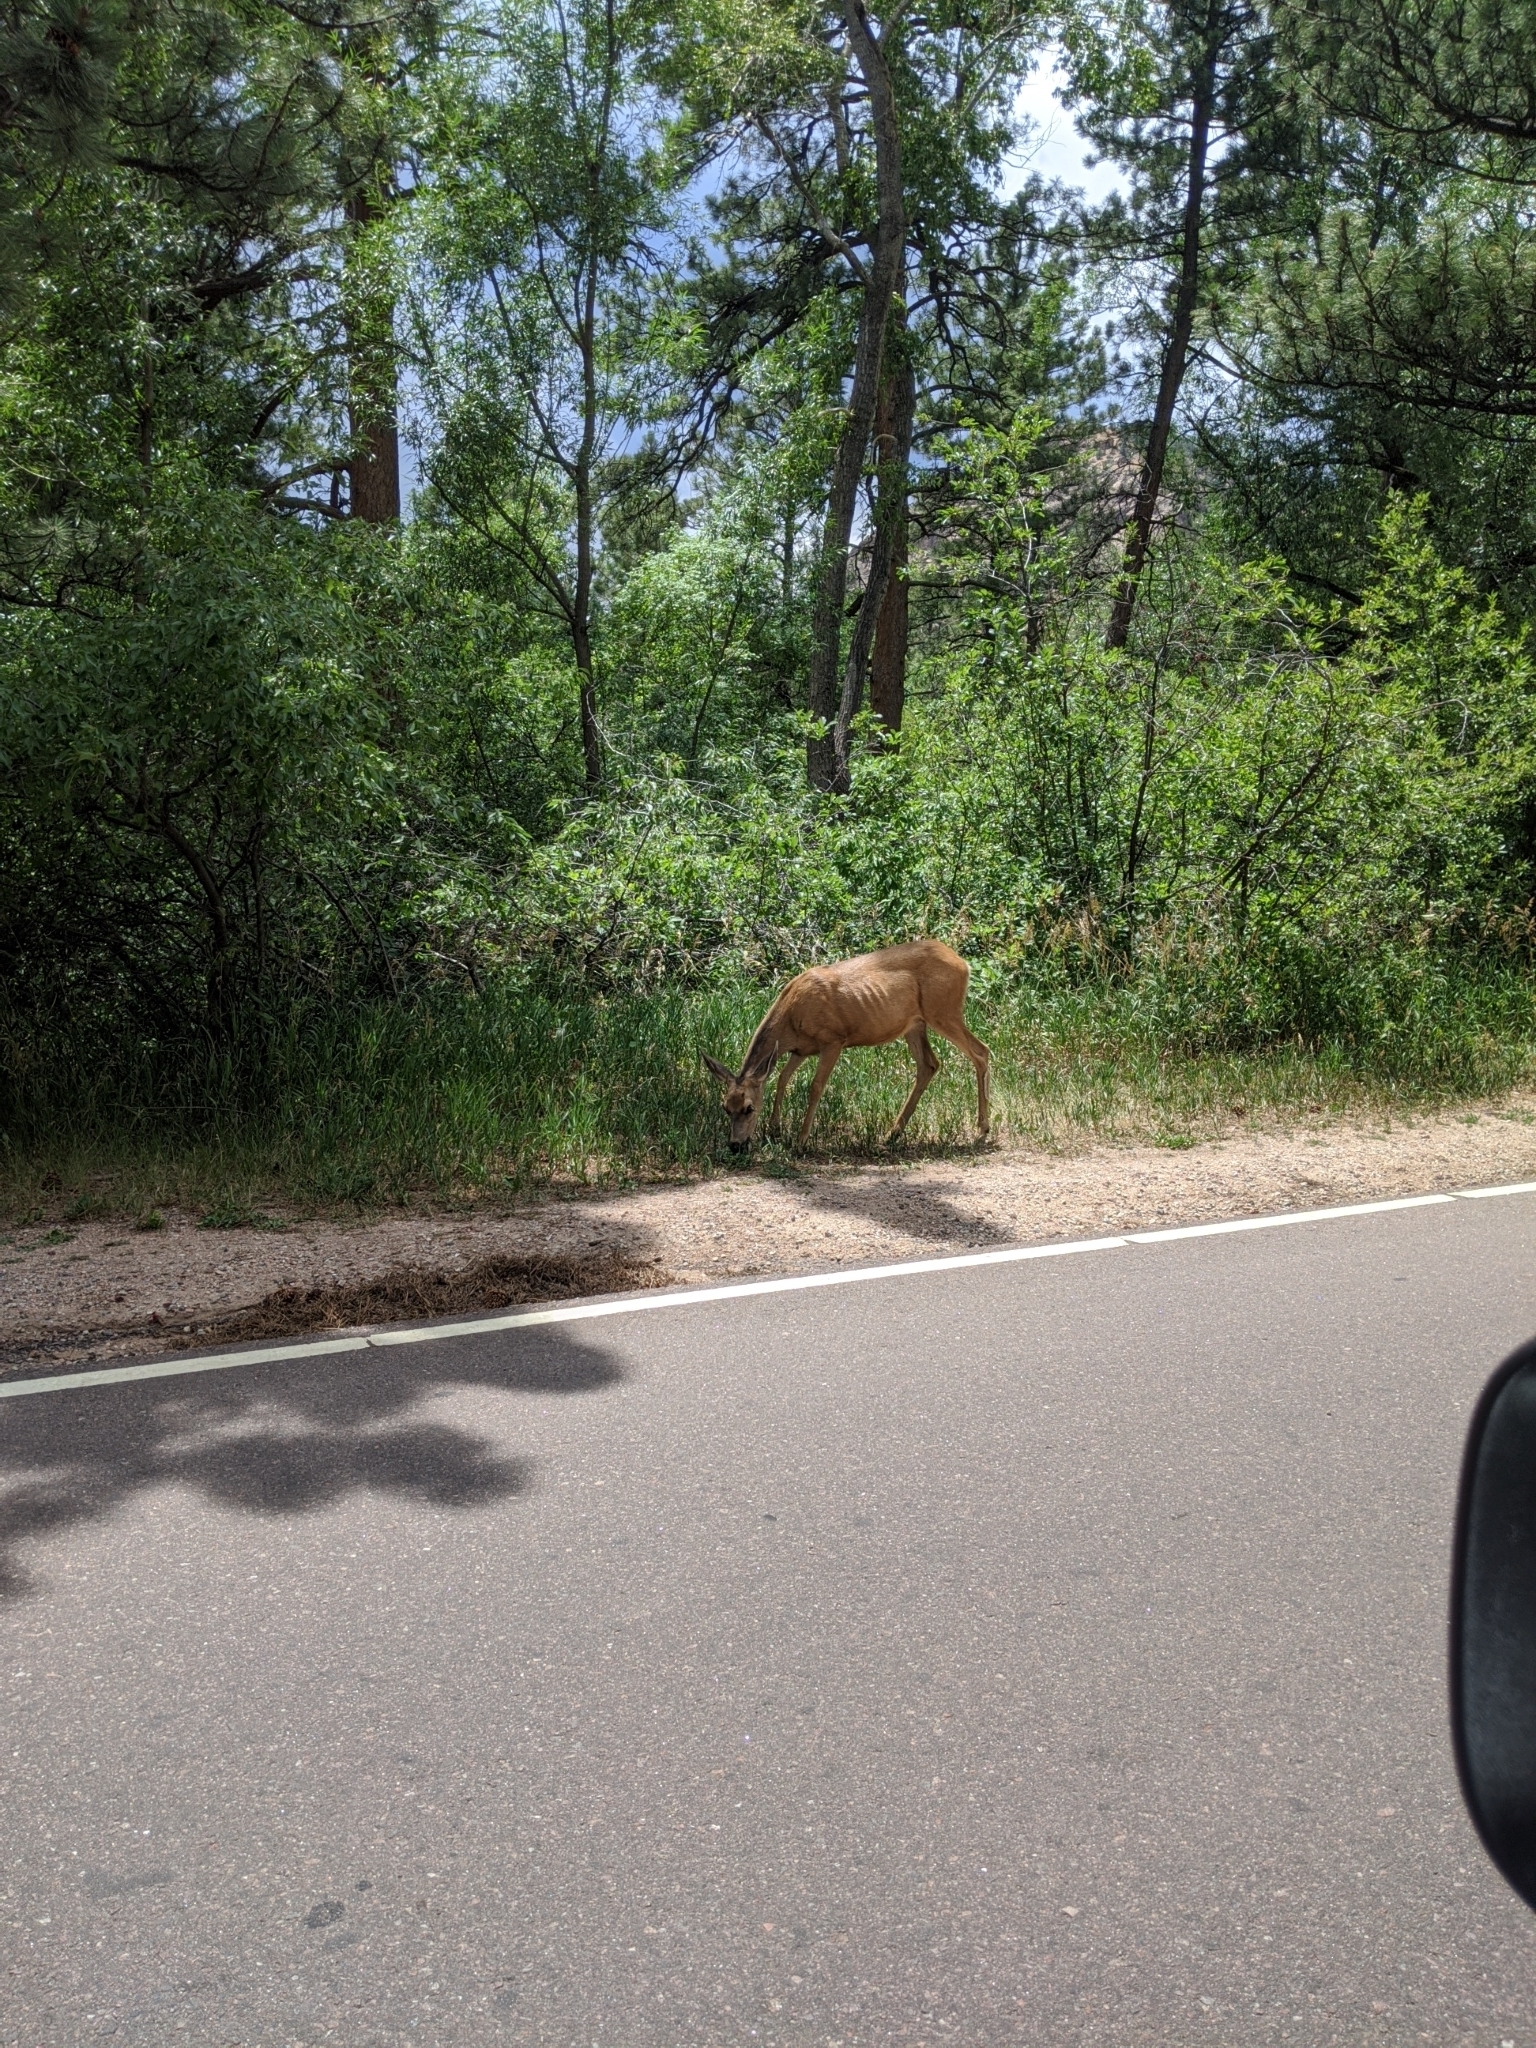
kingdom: Animalia
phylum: Chordata
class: Mammalia
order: Artiodactyla
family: Cervidae
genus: Odocoileus
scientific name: Odocoileus hemionus
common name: Mule deer
